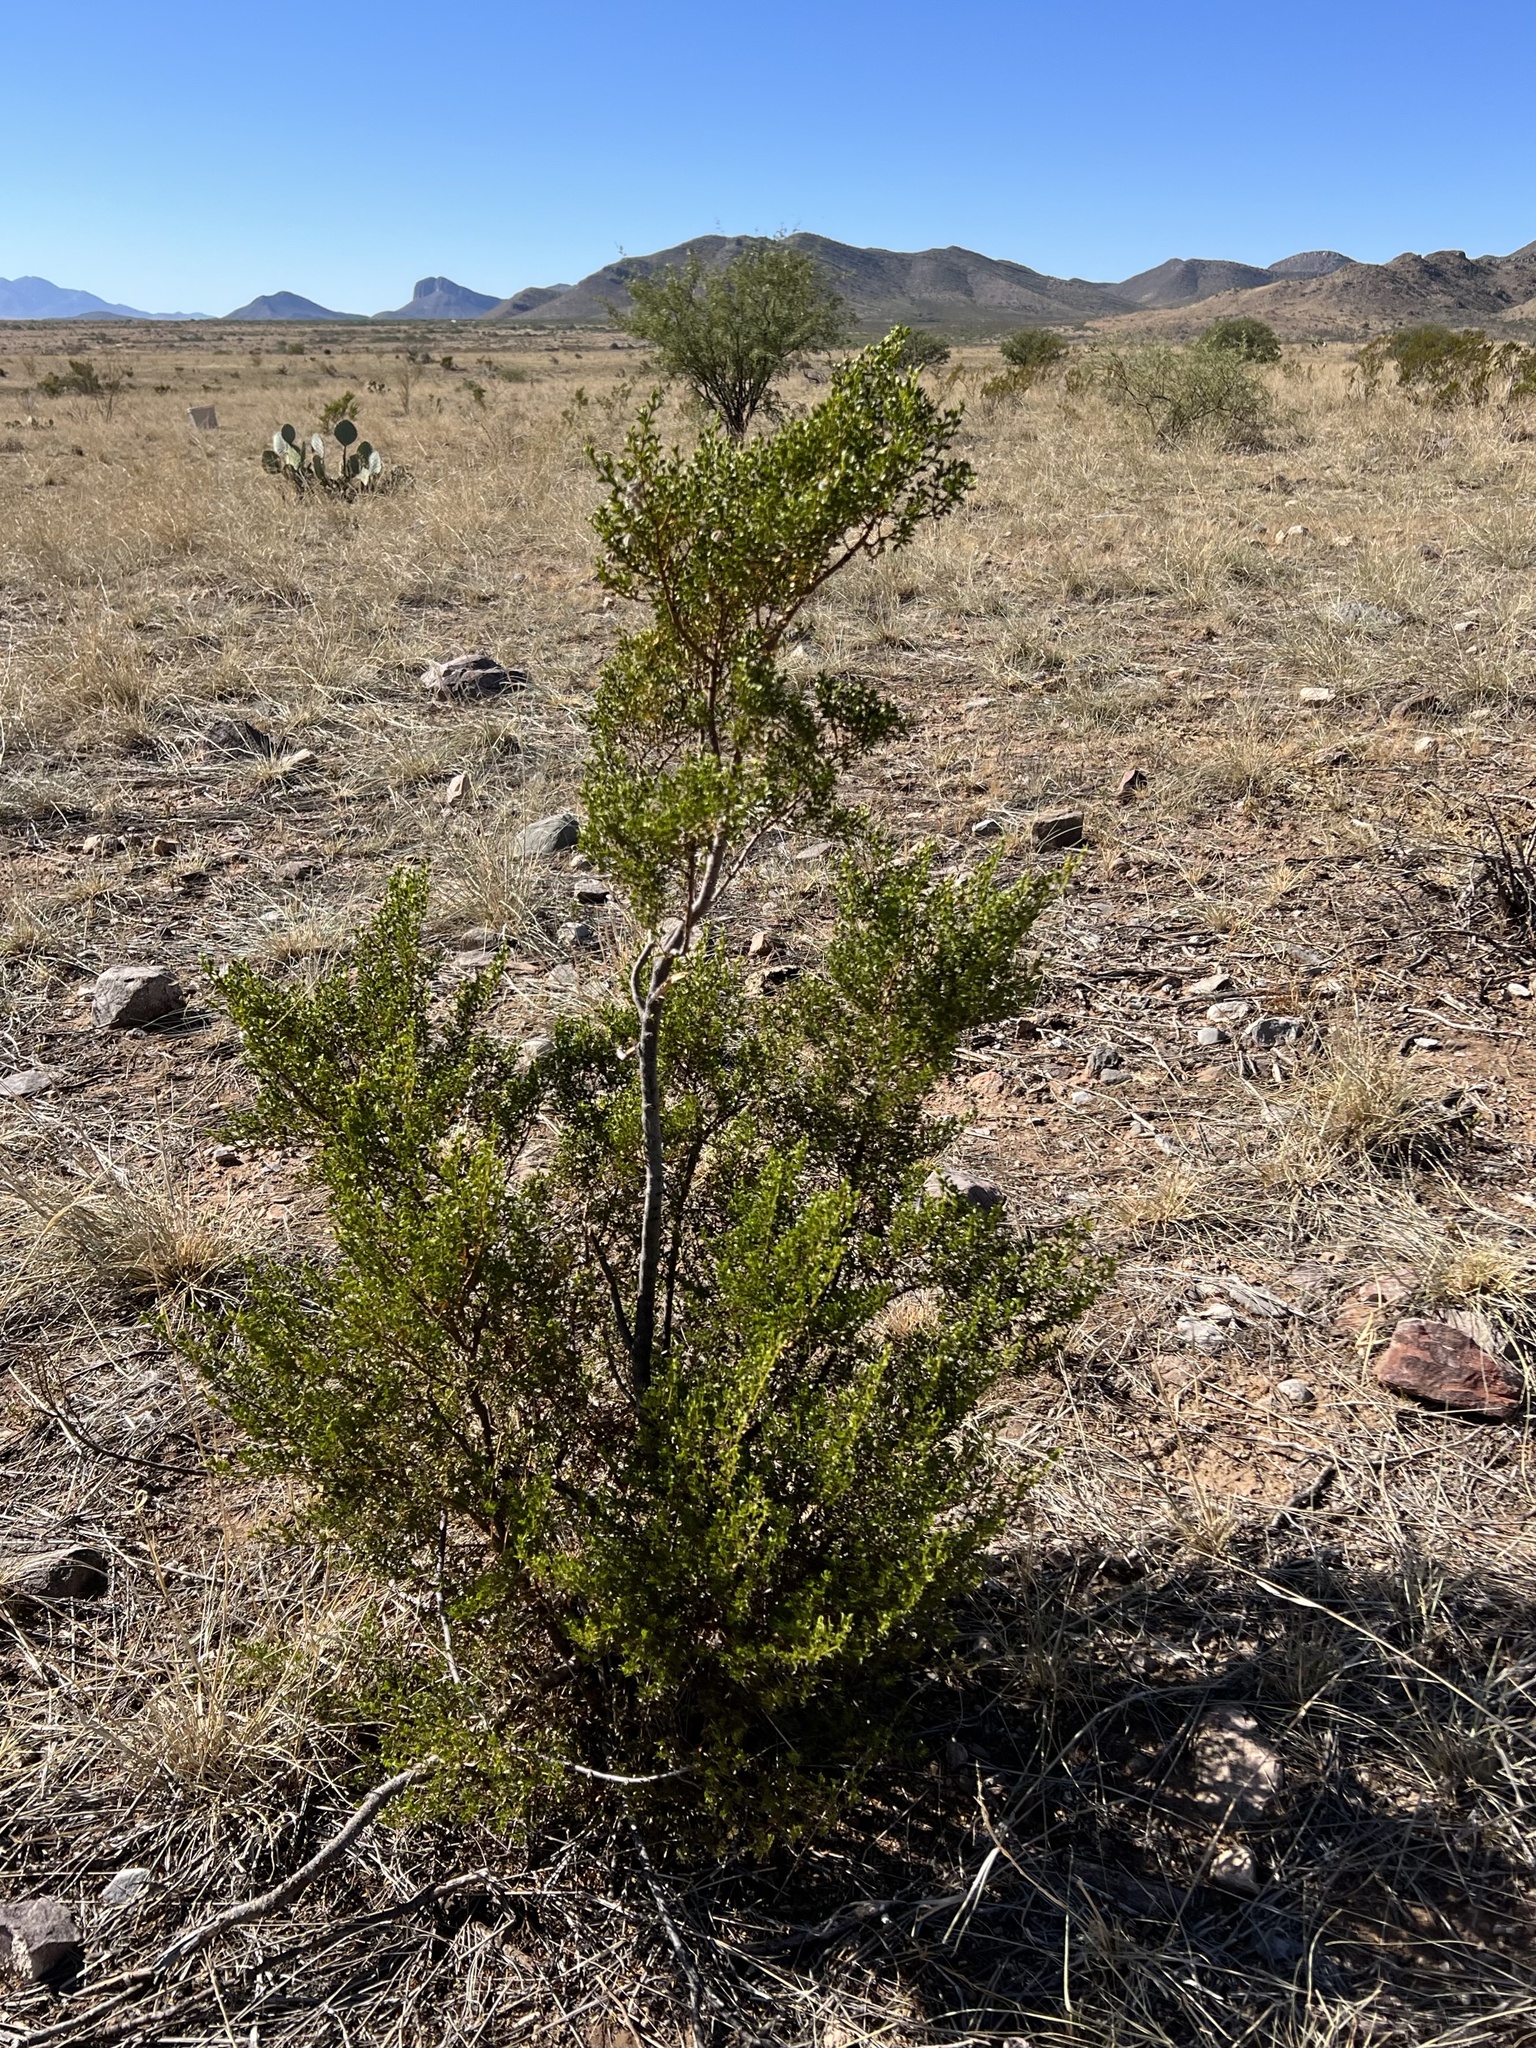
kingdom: Plantae
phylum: Tracheophyta
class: Magnoliopsida
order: Zygophyllales
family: Zygophyllaceae
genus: Larrea
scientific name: Larrea tridentata
